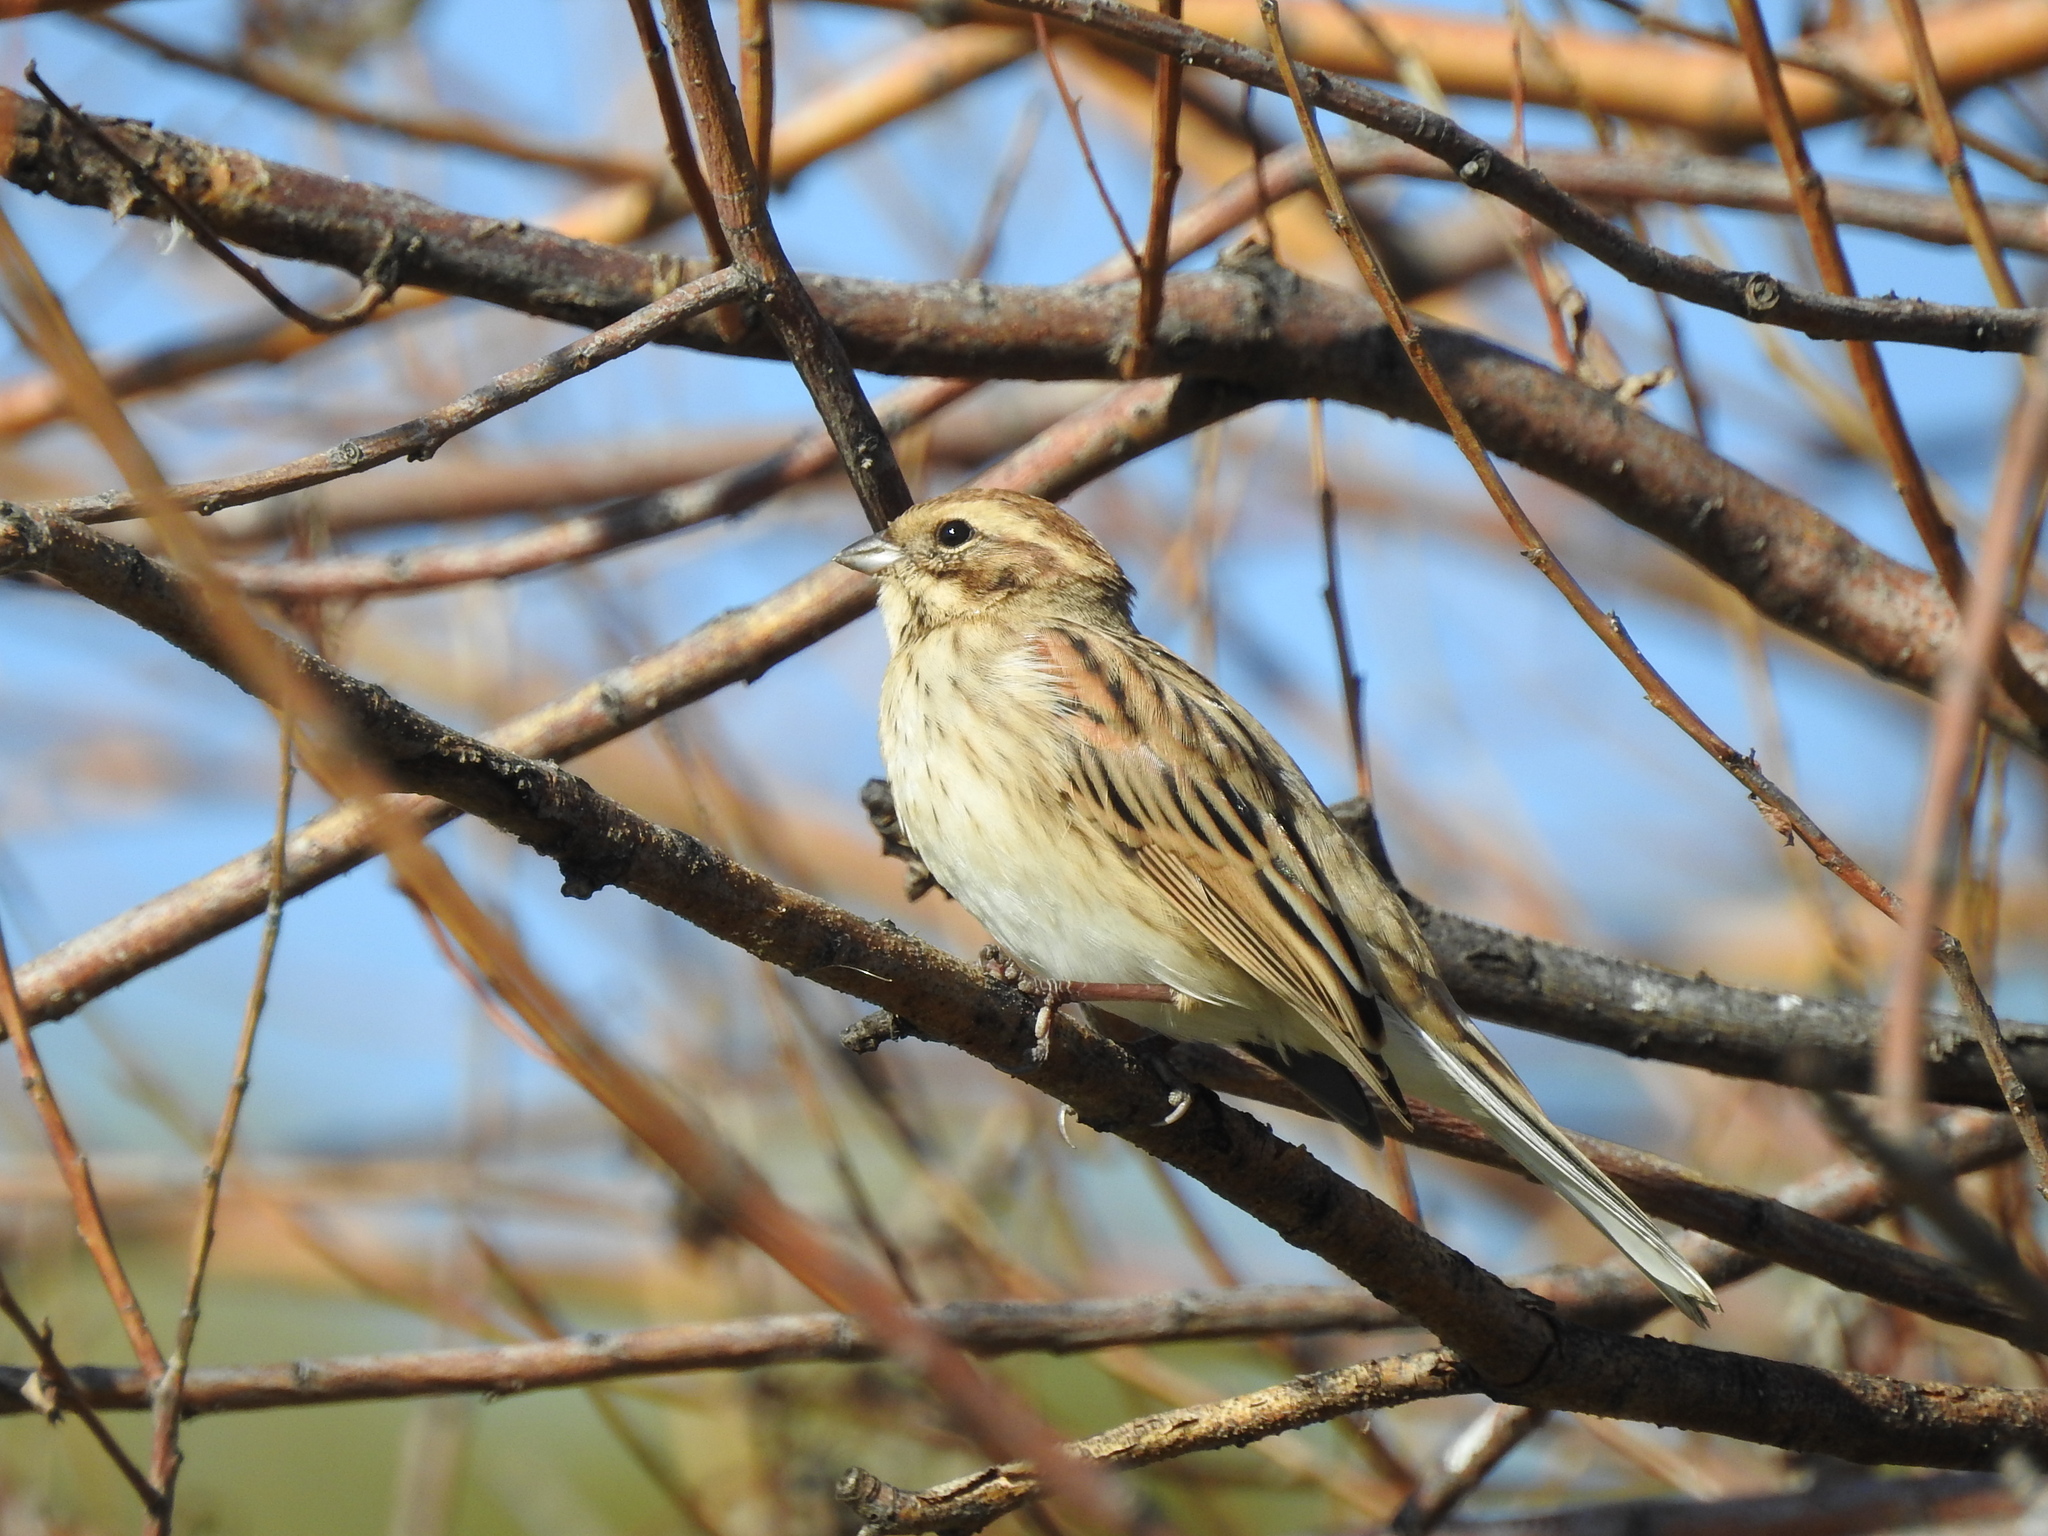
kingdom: Animalia
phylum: Chordata
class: Aves
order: Passeriformes
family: Emberizidae
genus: Emberiza
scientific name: Emberiza schoeniclus
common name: Reed bunting
